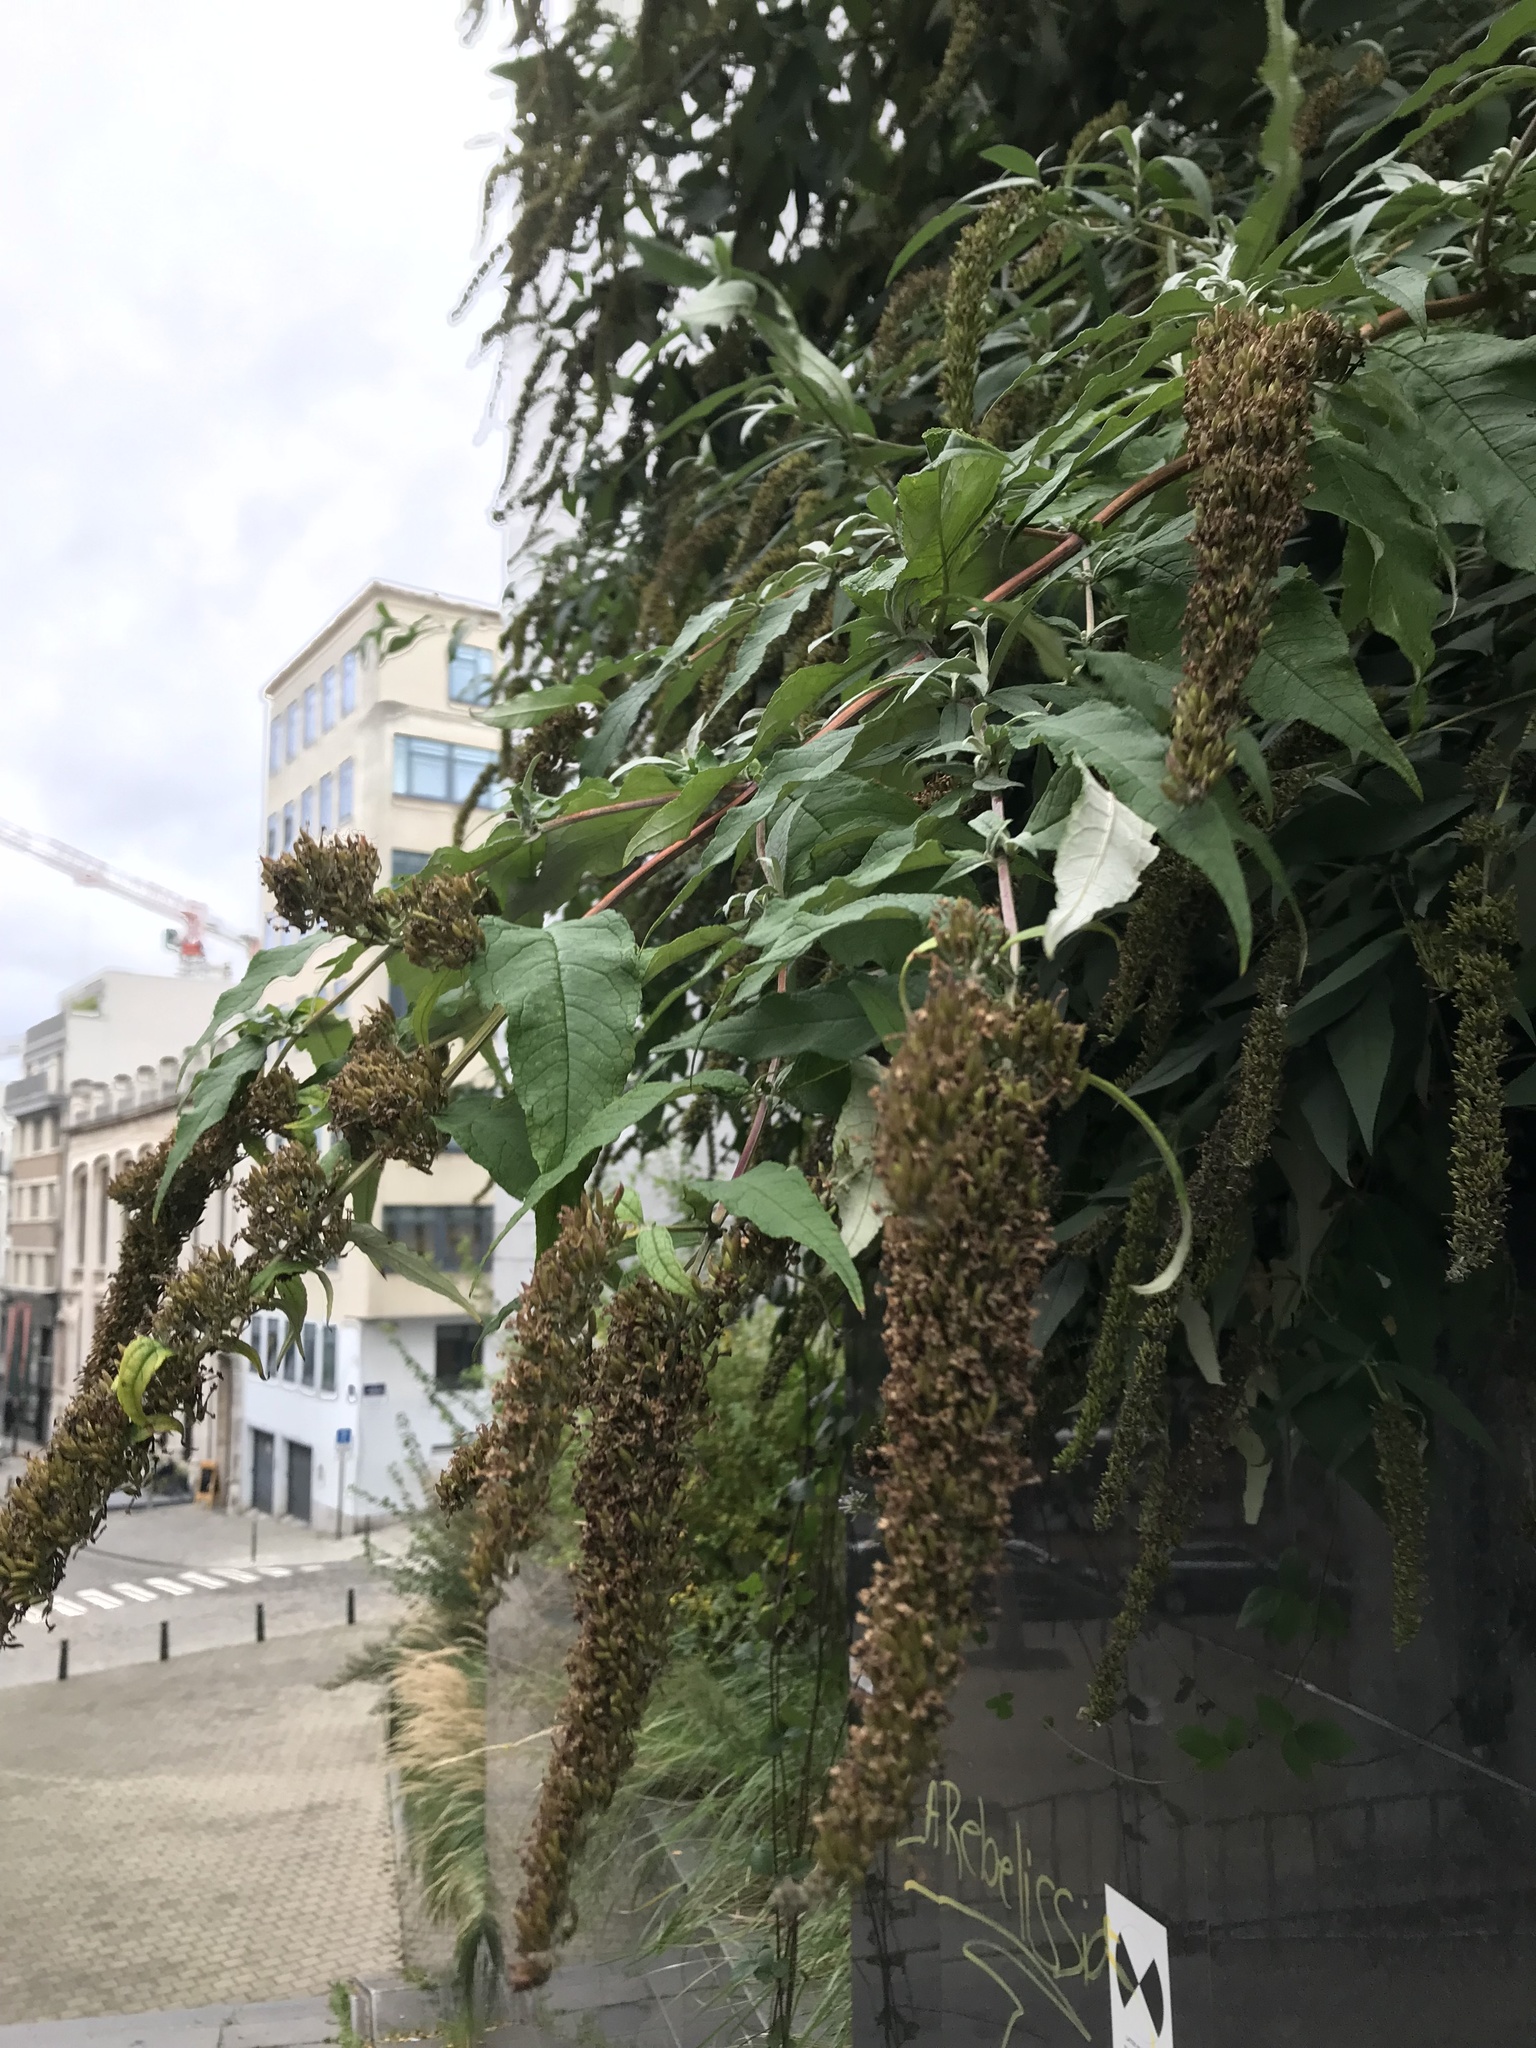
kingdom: Plantae
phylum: Tracheophyta
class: Magnoliopsida
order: Lamiales
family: Scrophulariaceae
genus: Buddleja
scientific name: Buddleja davidii
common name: Butterfly-bush
